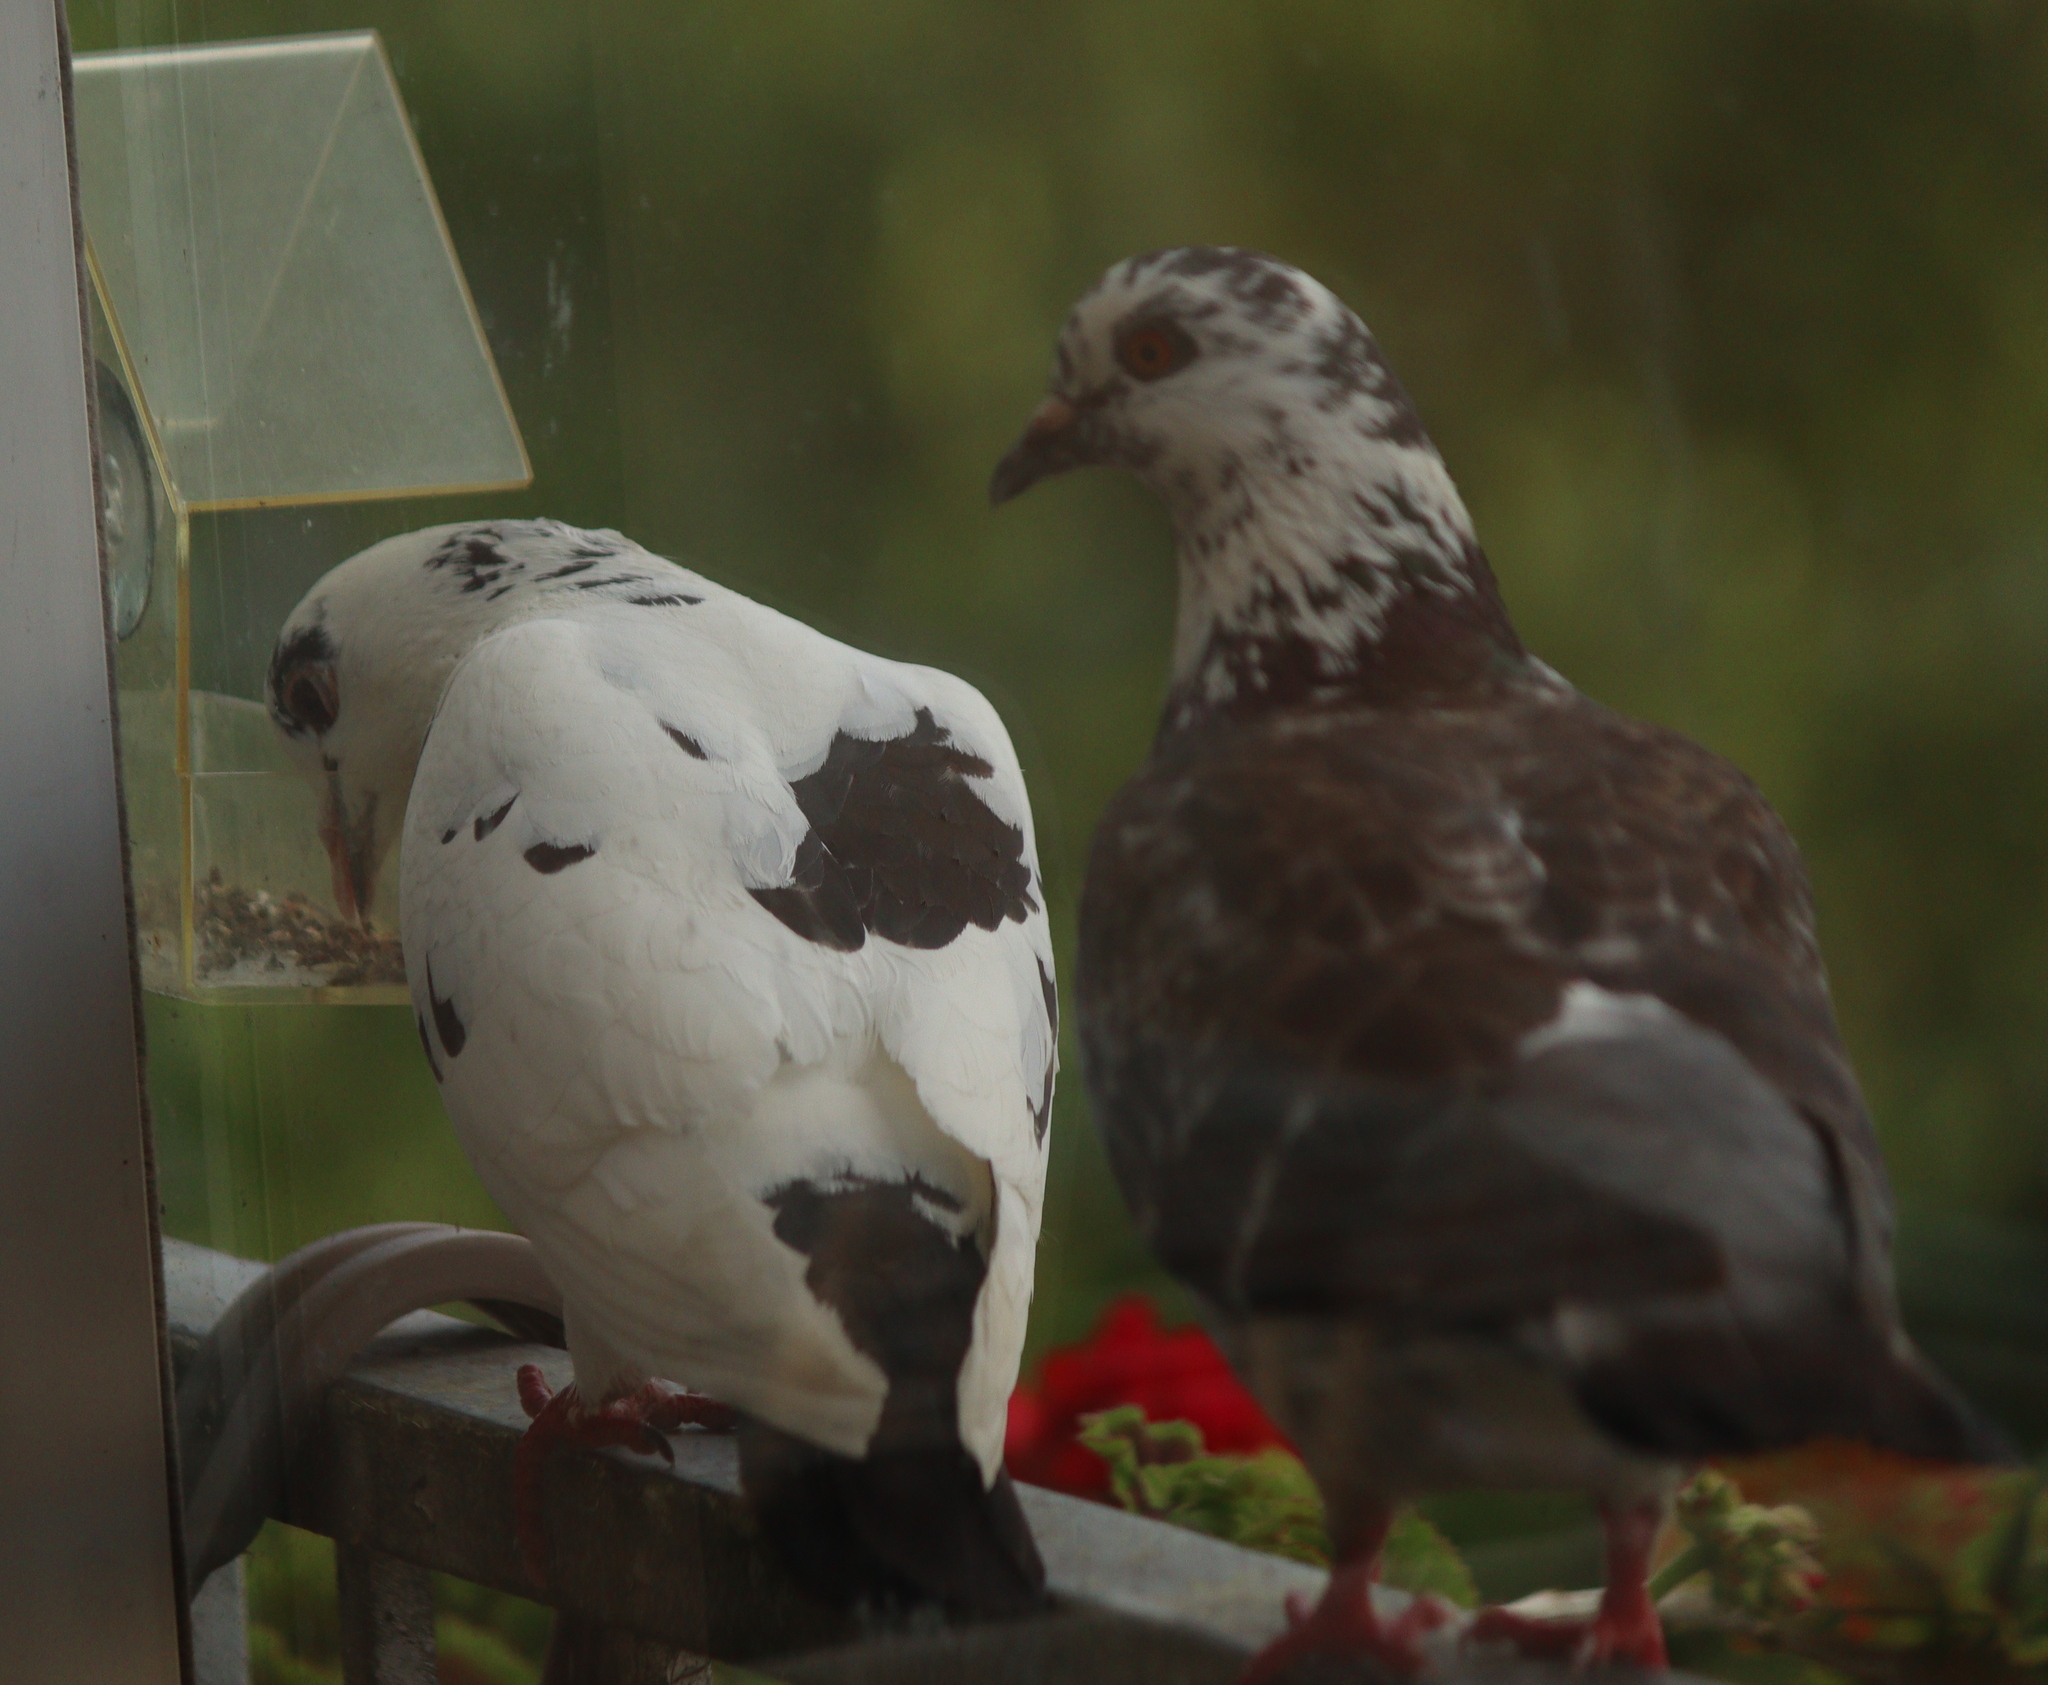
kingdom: Animalia
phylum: Chordata
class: Aves
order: Columbiformes
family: Columbidae
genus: Columba
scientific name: Columba livia
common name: Rock pigeon
